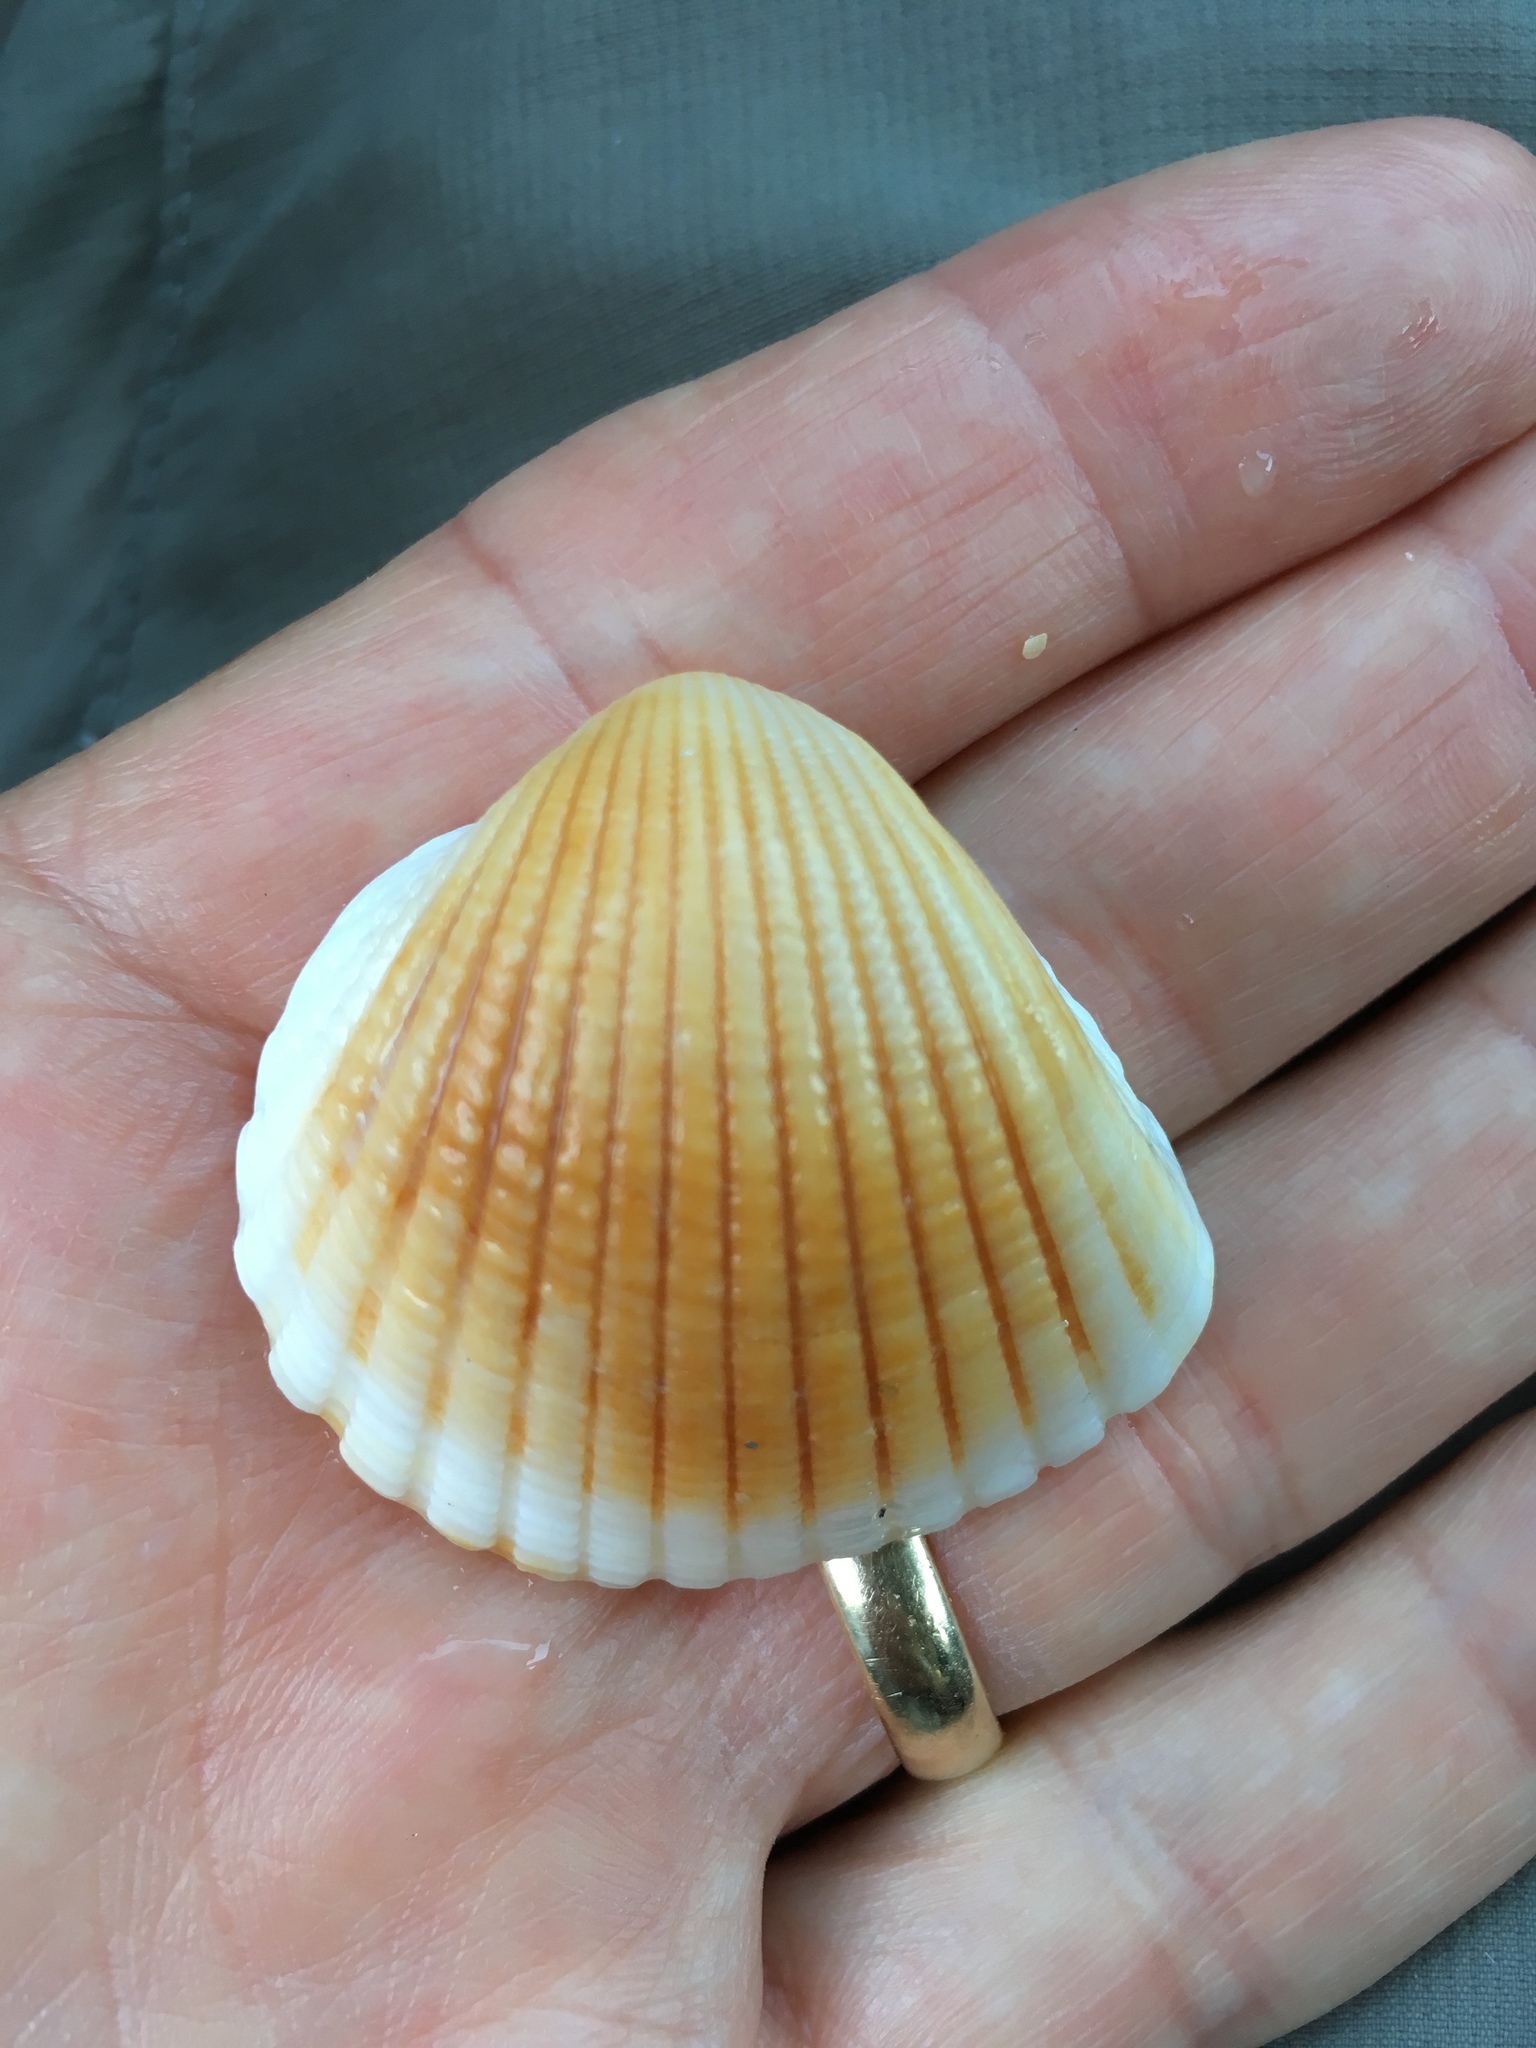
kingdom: Animalia
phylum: Mollusca
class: Bivalvia
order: Arcida
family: Arcidae
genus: Anadara
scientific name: Anadara brasiliana
